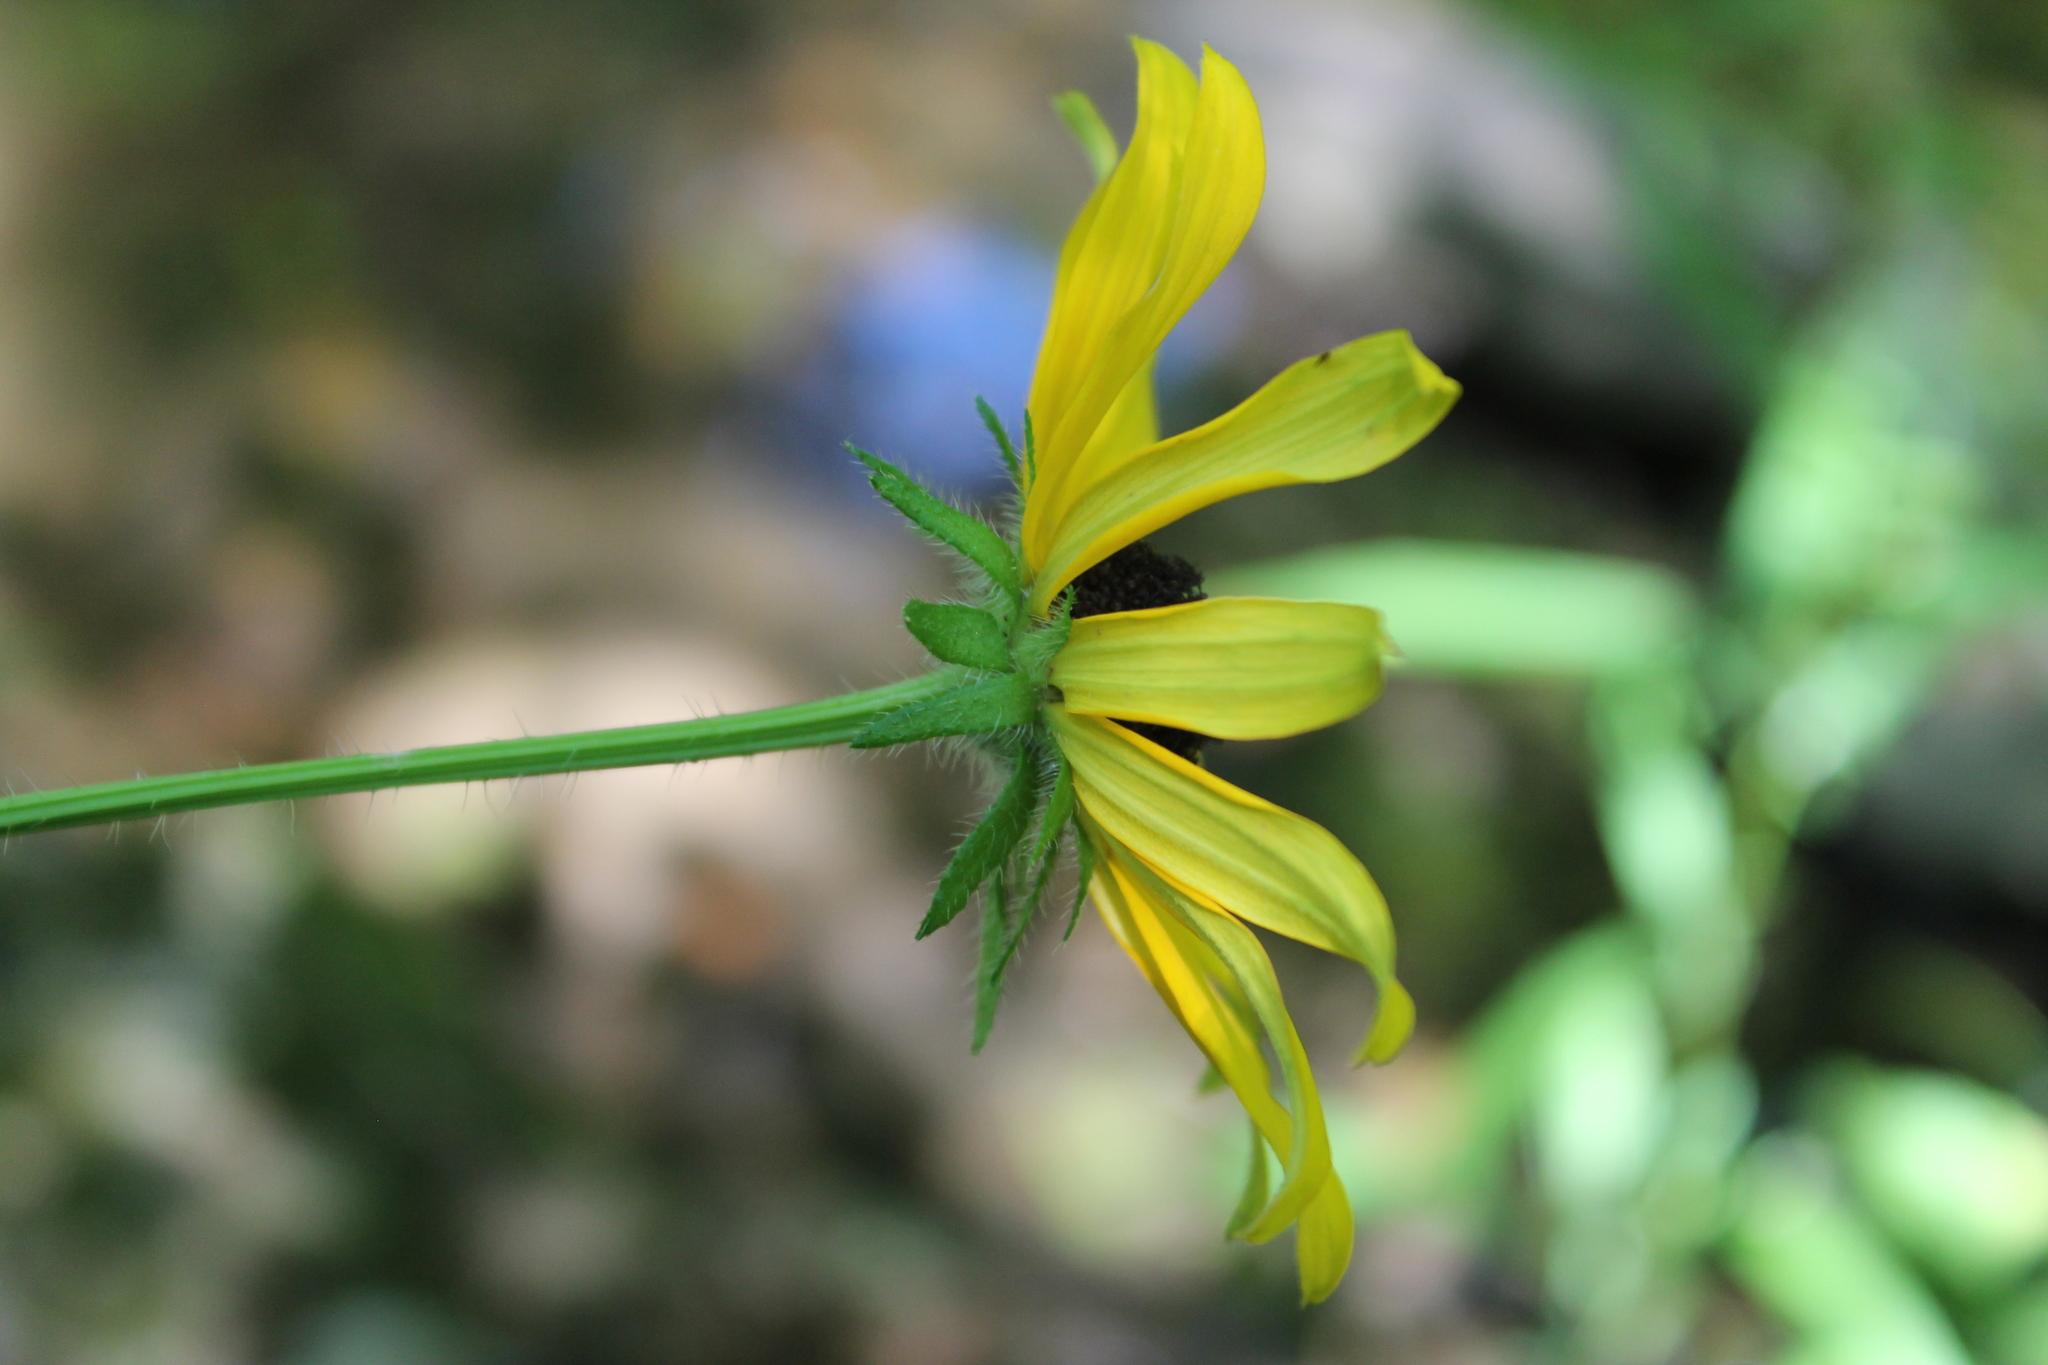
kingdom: Plantae
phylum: Tracheophyta
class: Magnoliopsida
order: Asterales
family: Asteraceae
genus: Rudbeckia
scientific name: Rudbeckia hirta
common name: Black-eyed-susan
